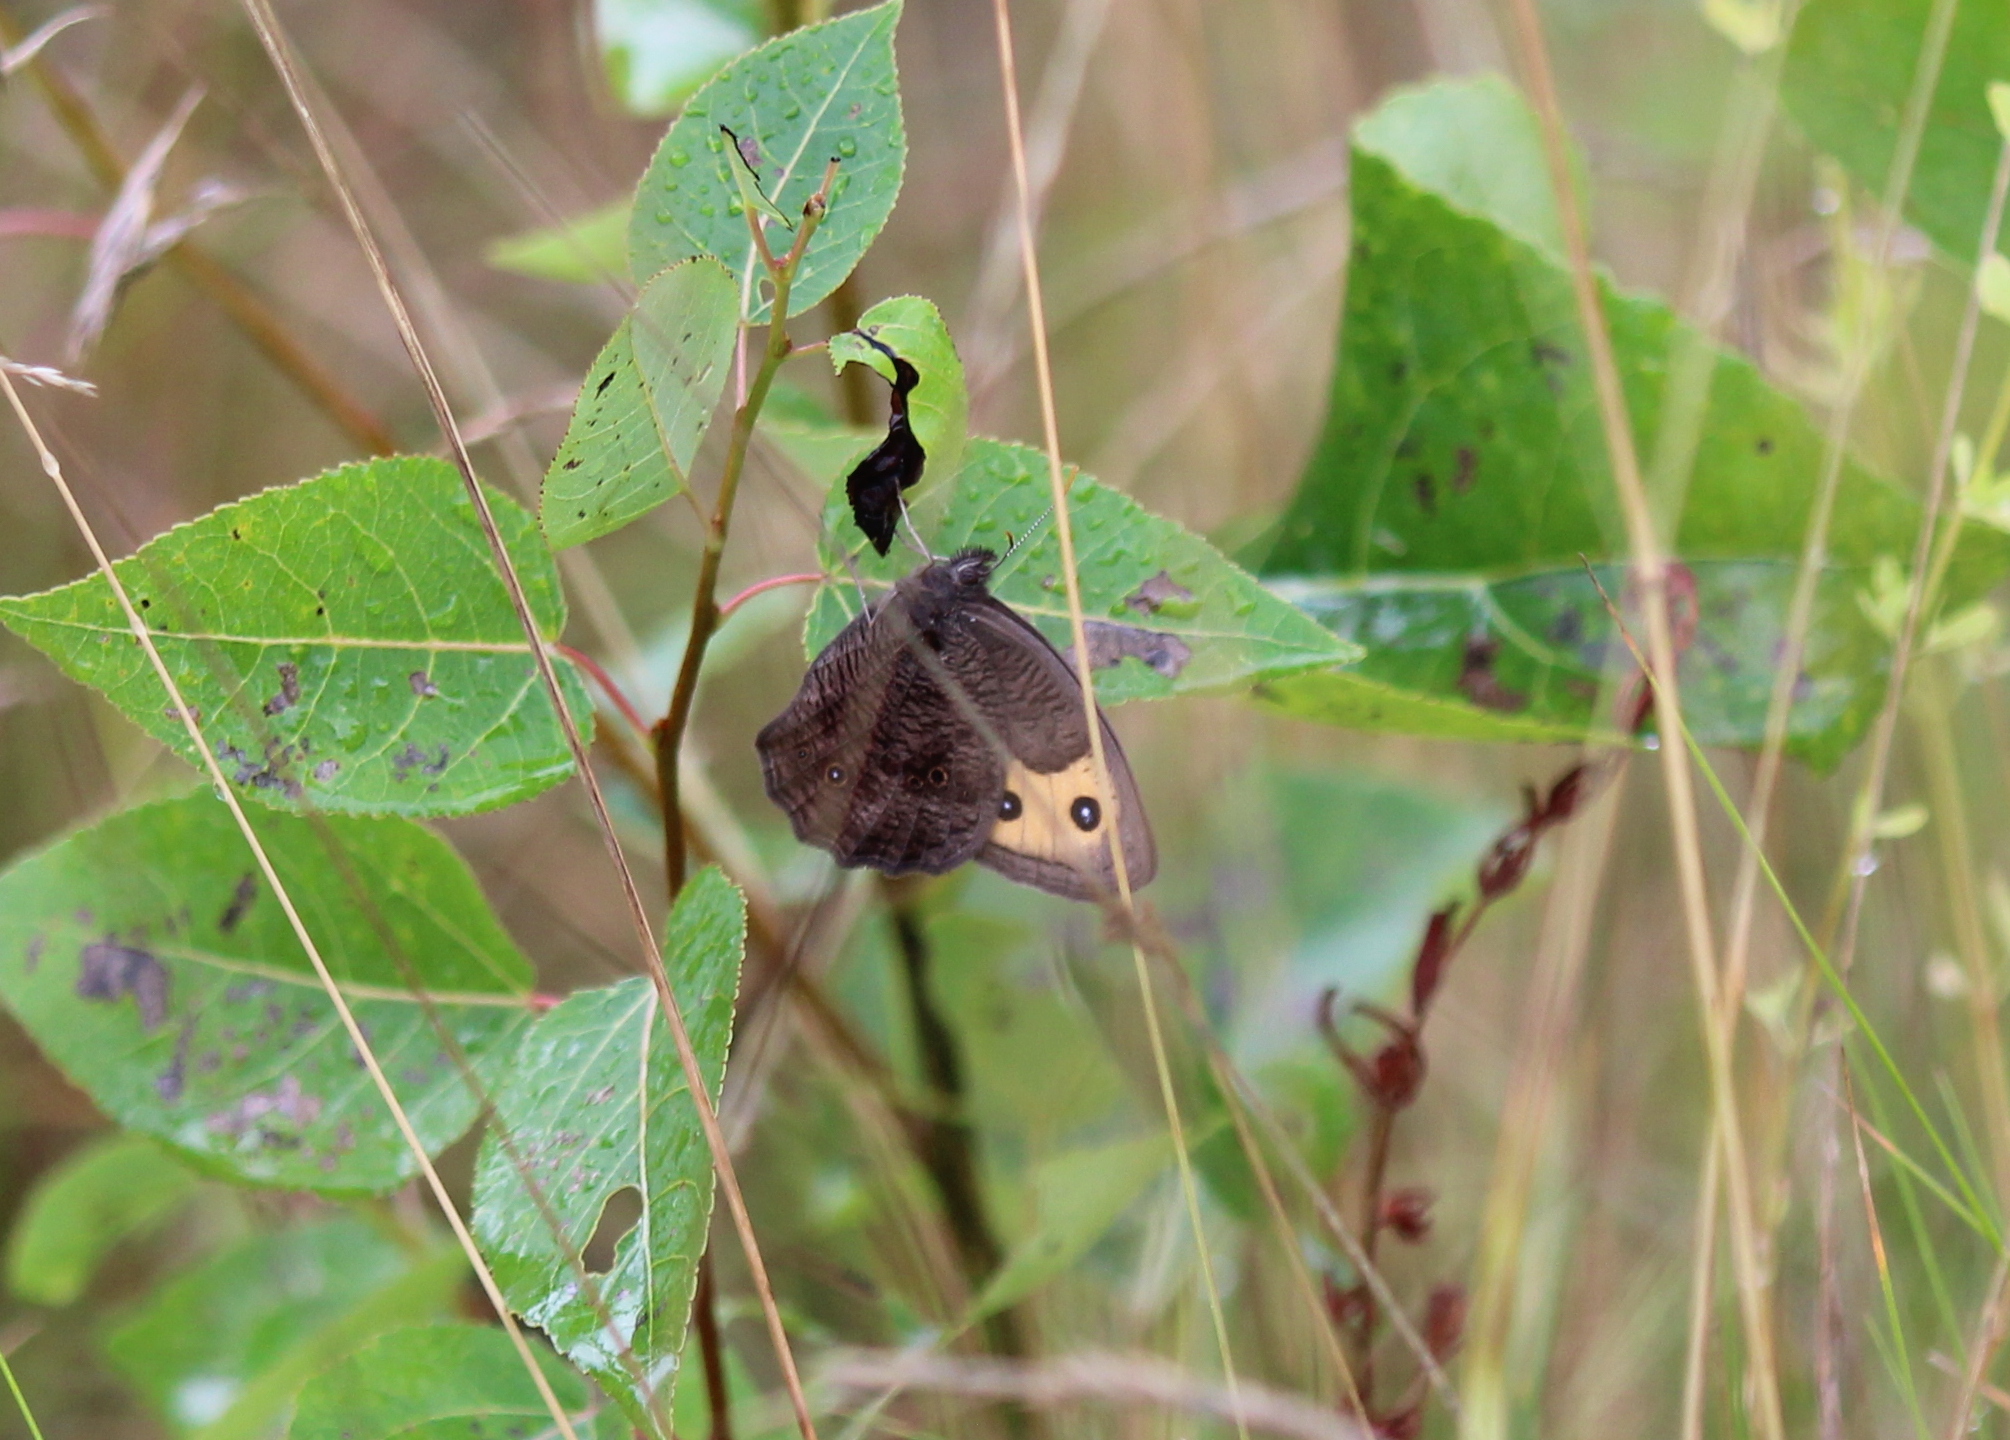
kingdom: Animalia
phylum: Arthropoda
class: Insecta
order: Lepidoptera
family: Nymphalidae
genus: Cercyonis
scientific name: Cercyonis pegala
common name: Common wood-nymph
